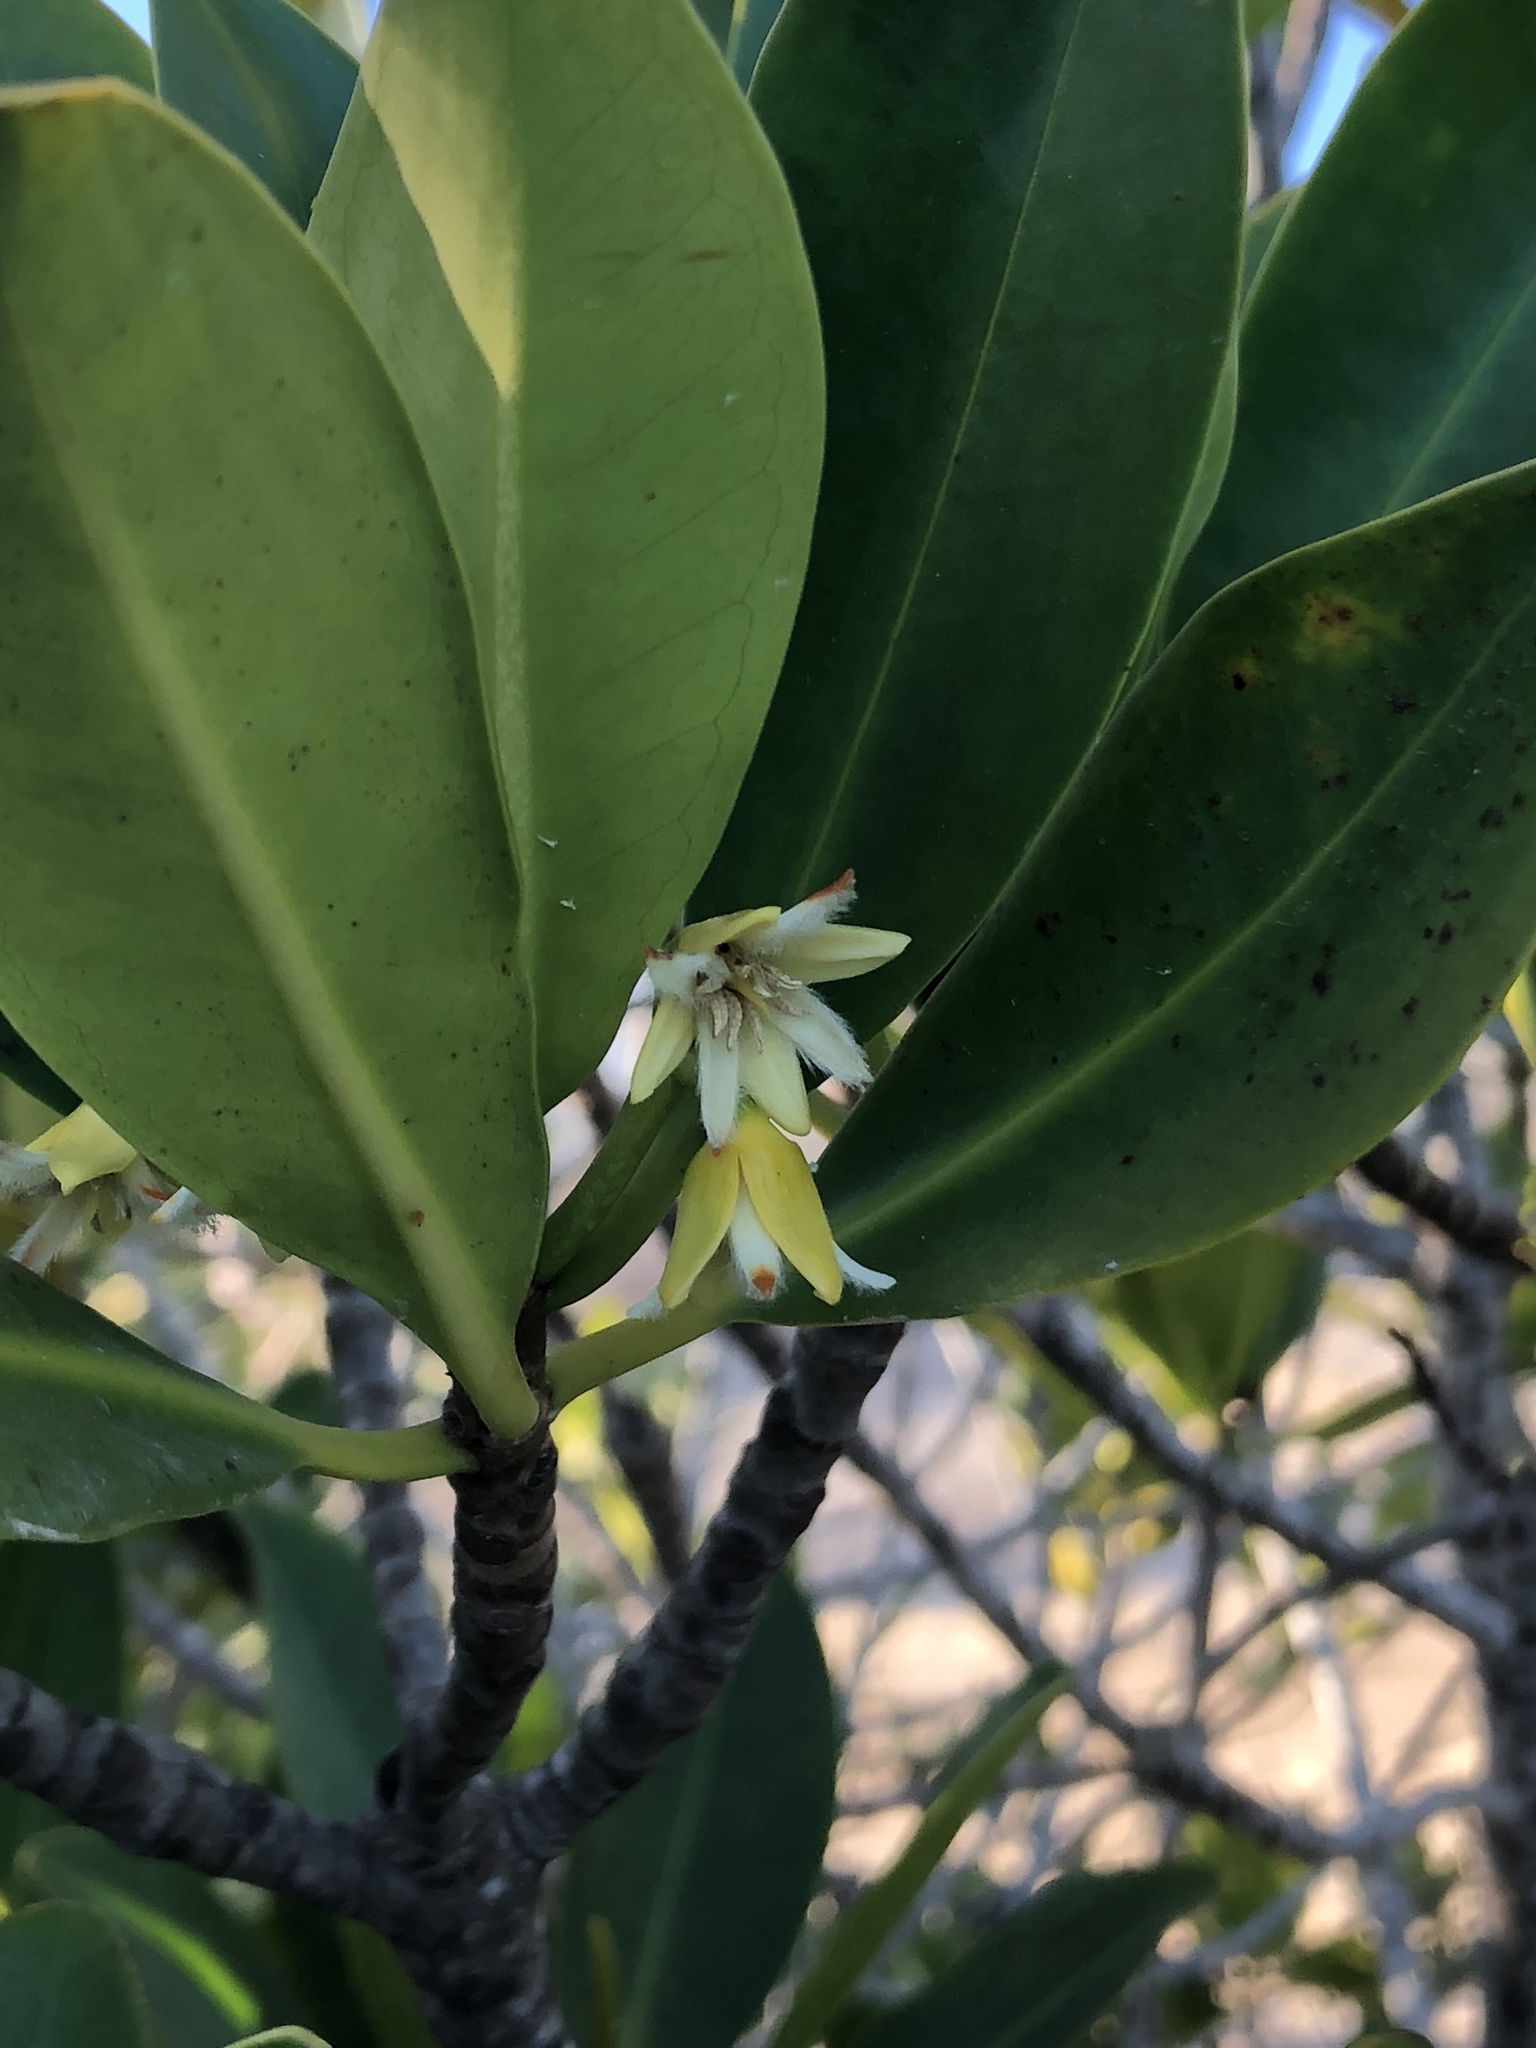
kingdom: Plantae
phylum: Tracheophyta
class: Magnoliopsida
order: Malpighiales
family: Rhizophoraceae
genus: Rhizophora
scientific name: Rhizophora mangle
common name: Red mangrove
